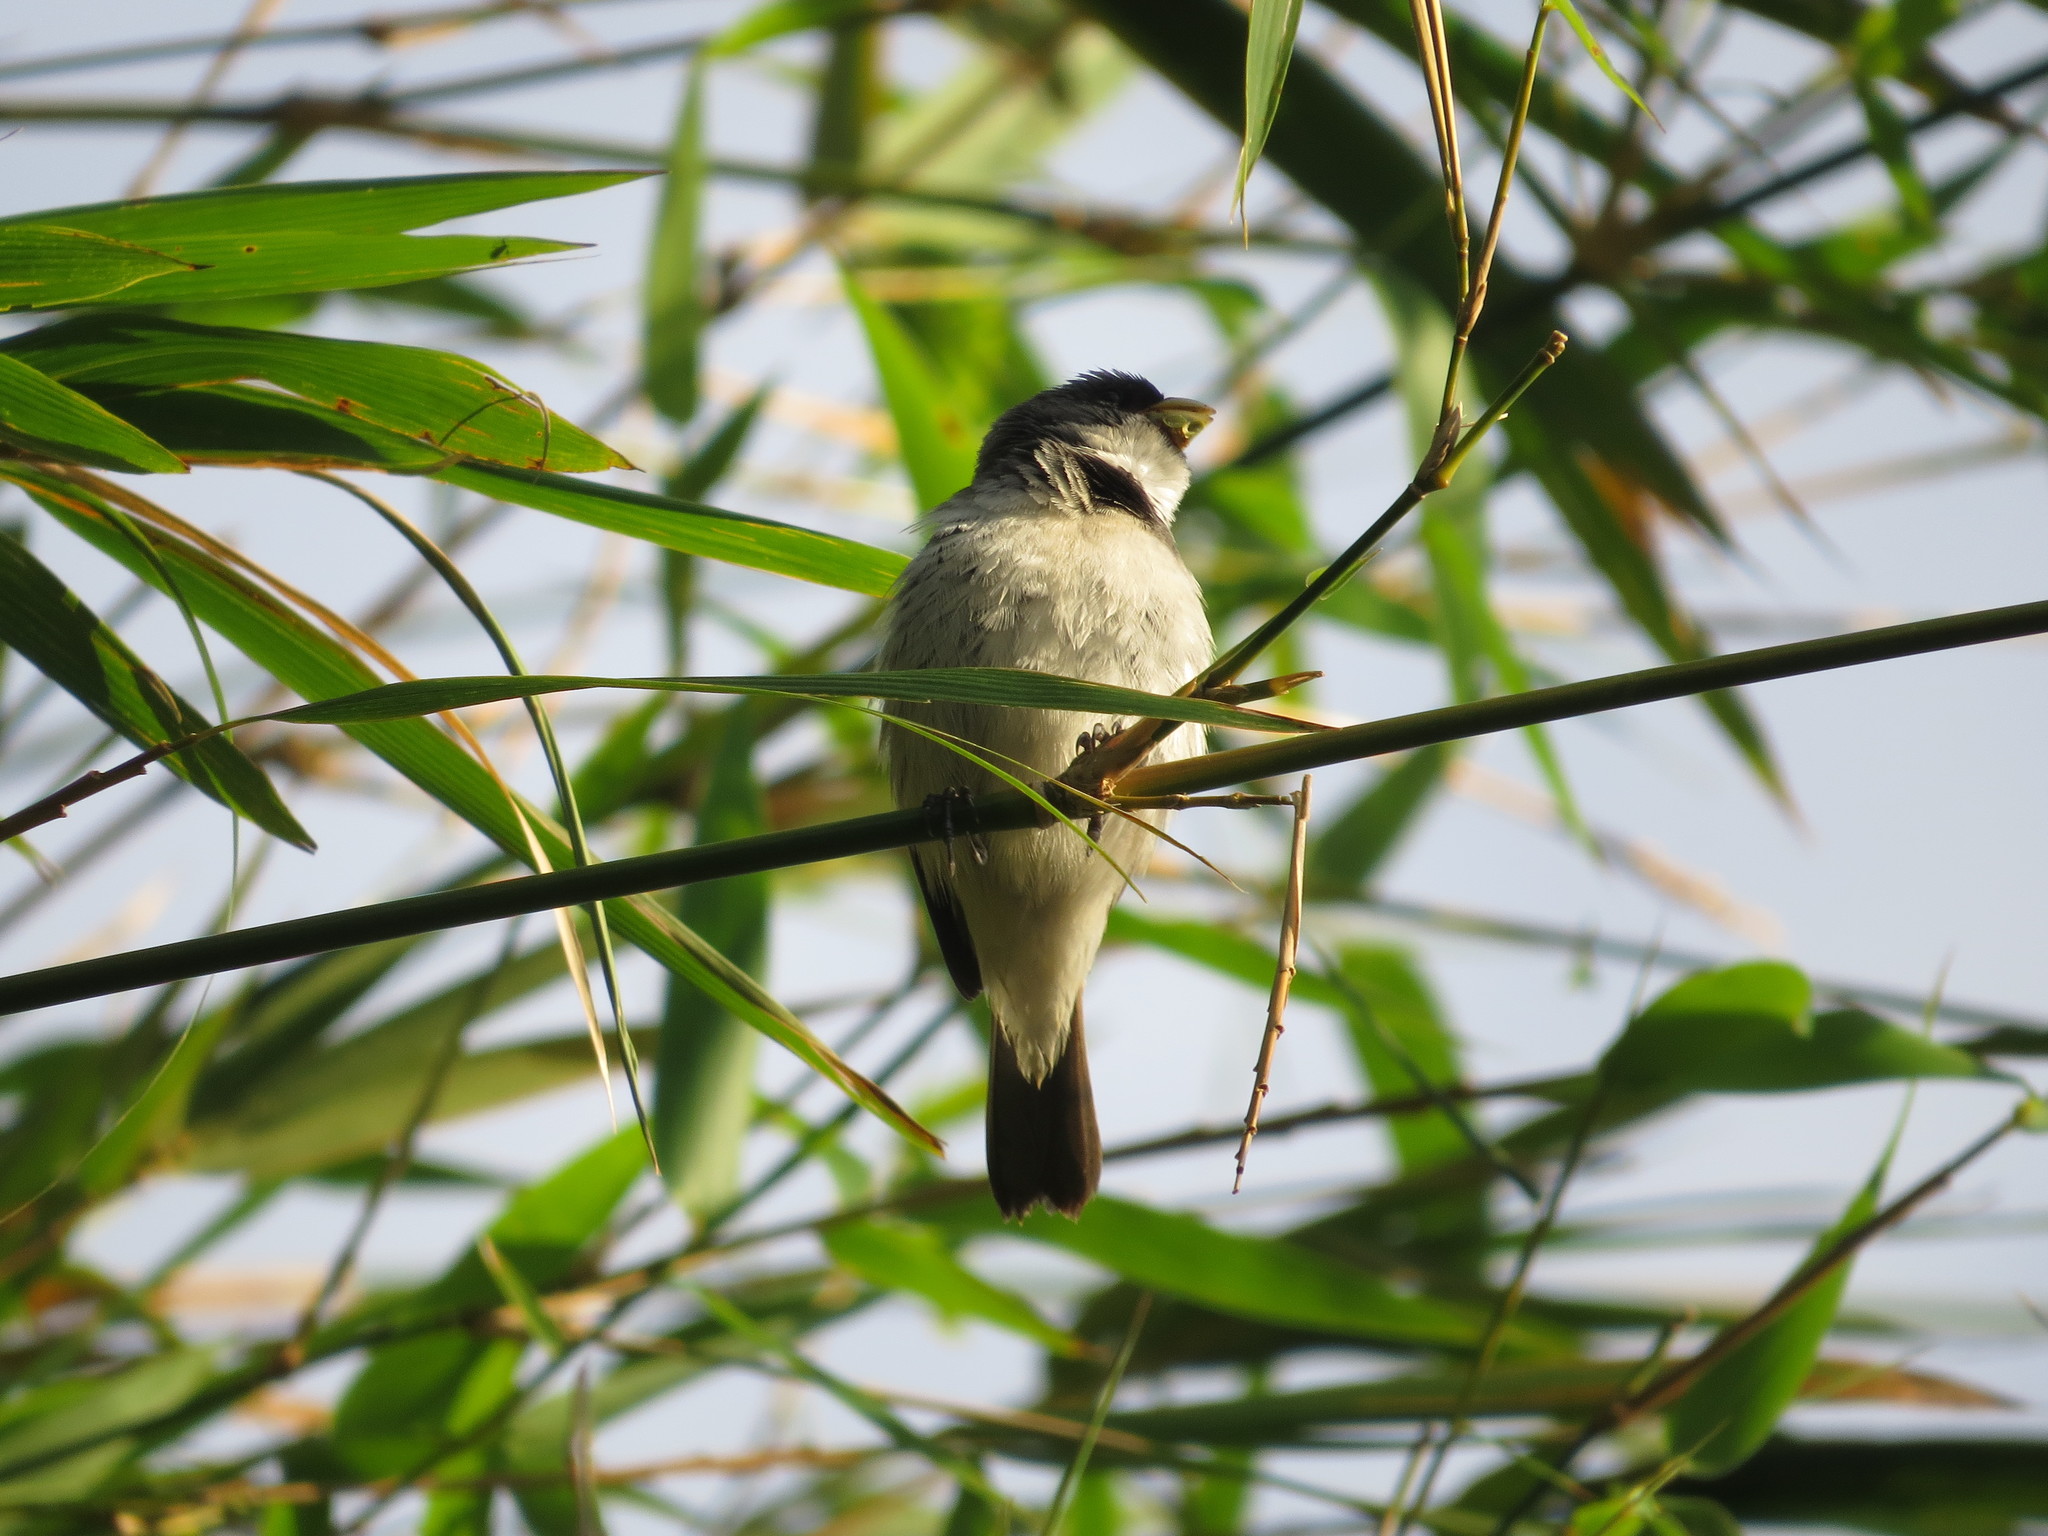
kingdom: Animalia
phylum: Chordata
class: Aves
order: Passeriformes
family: Thraupidae
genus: Sporophila
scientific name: Sporophila caerulescens
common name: Double-collared seedeater
